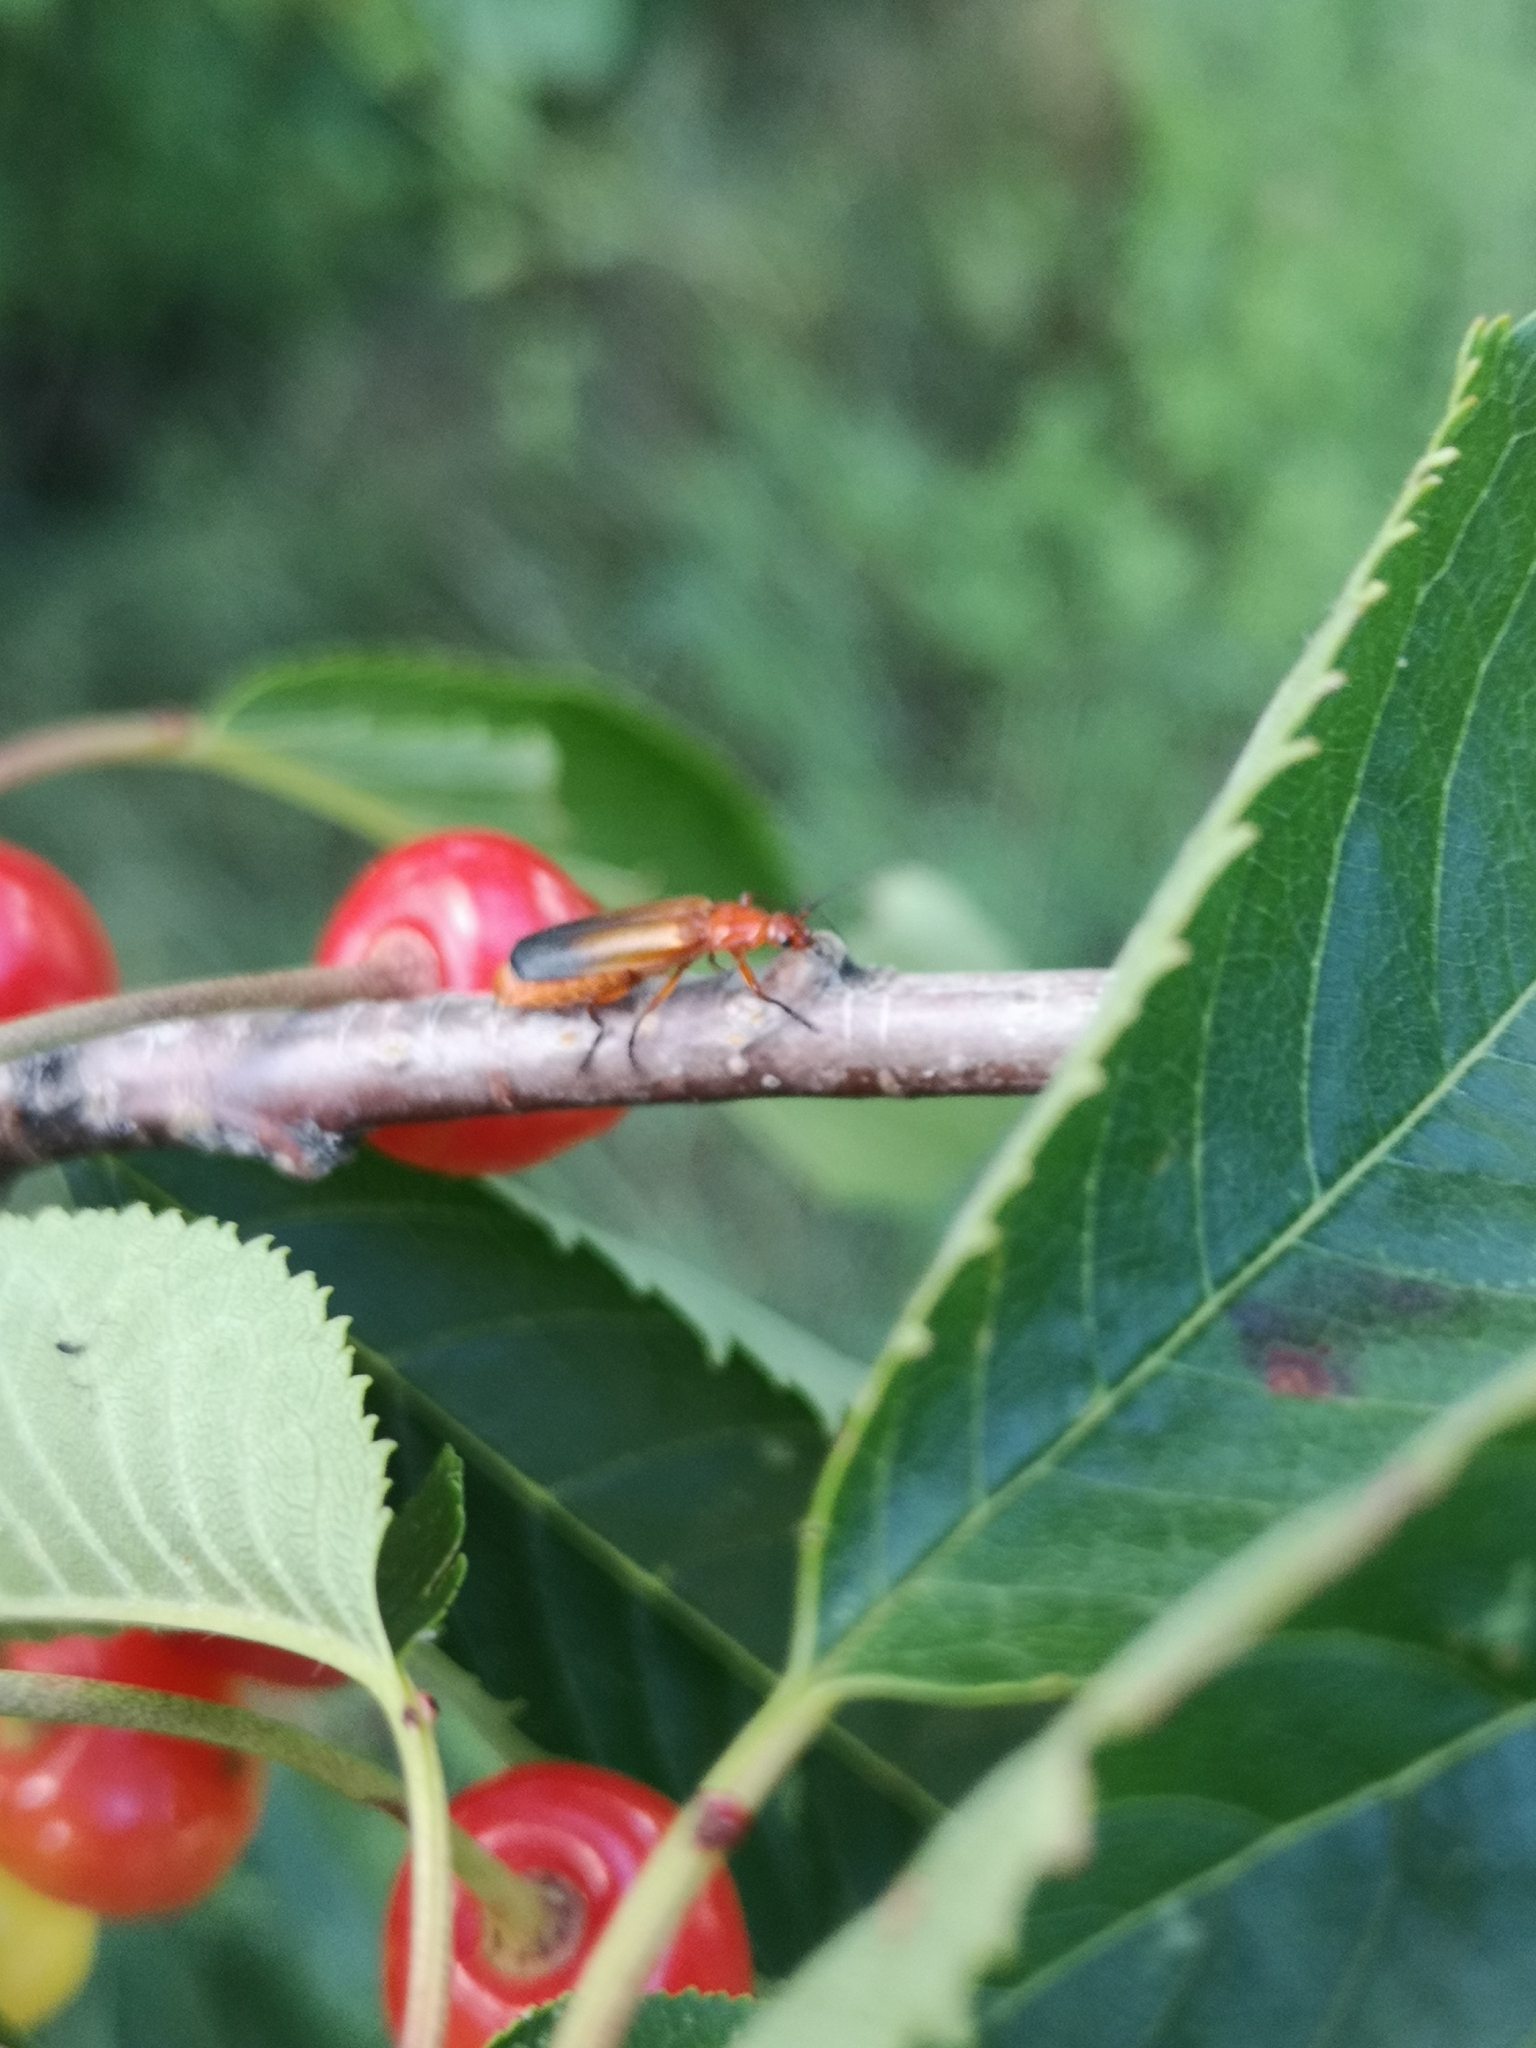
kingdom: Animalia
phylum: Arthropoda
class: Insecta
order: Coleoptera
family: Cantharidae
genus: Rhagonycha
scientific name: Rhagonycha fulva
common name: Common red soldier beetle
